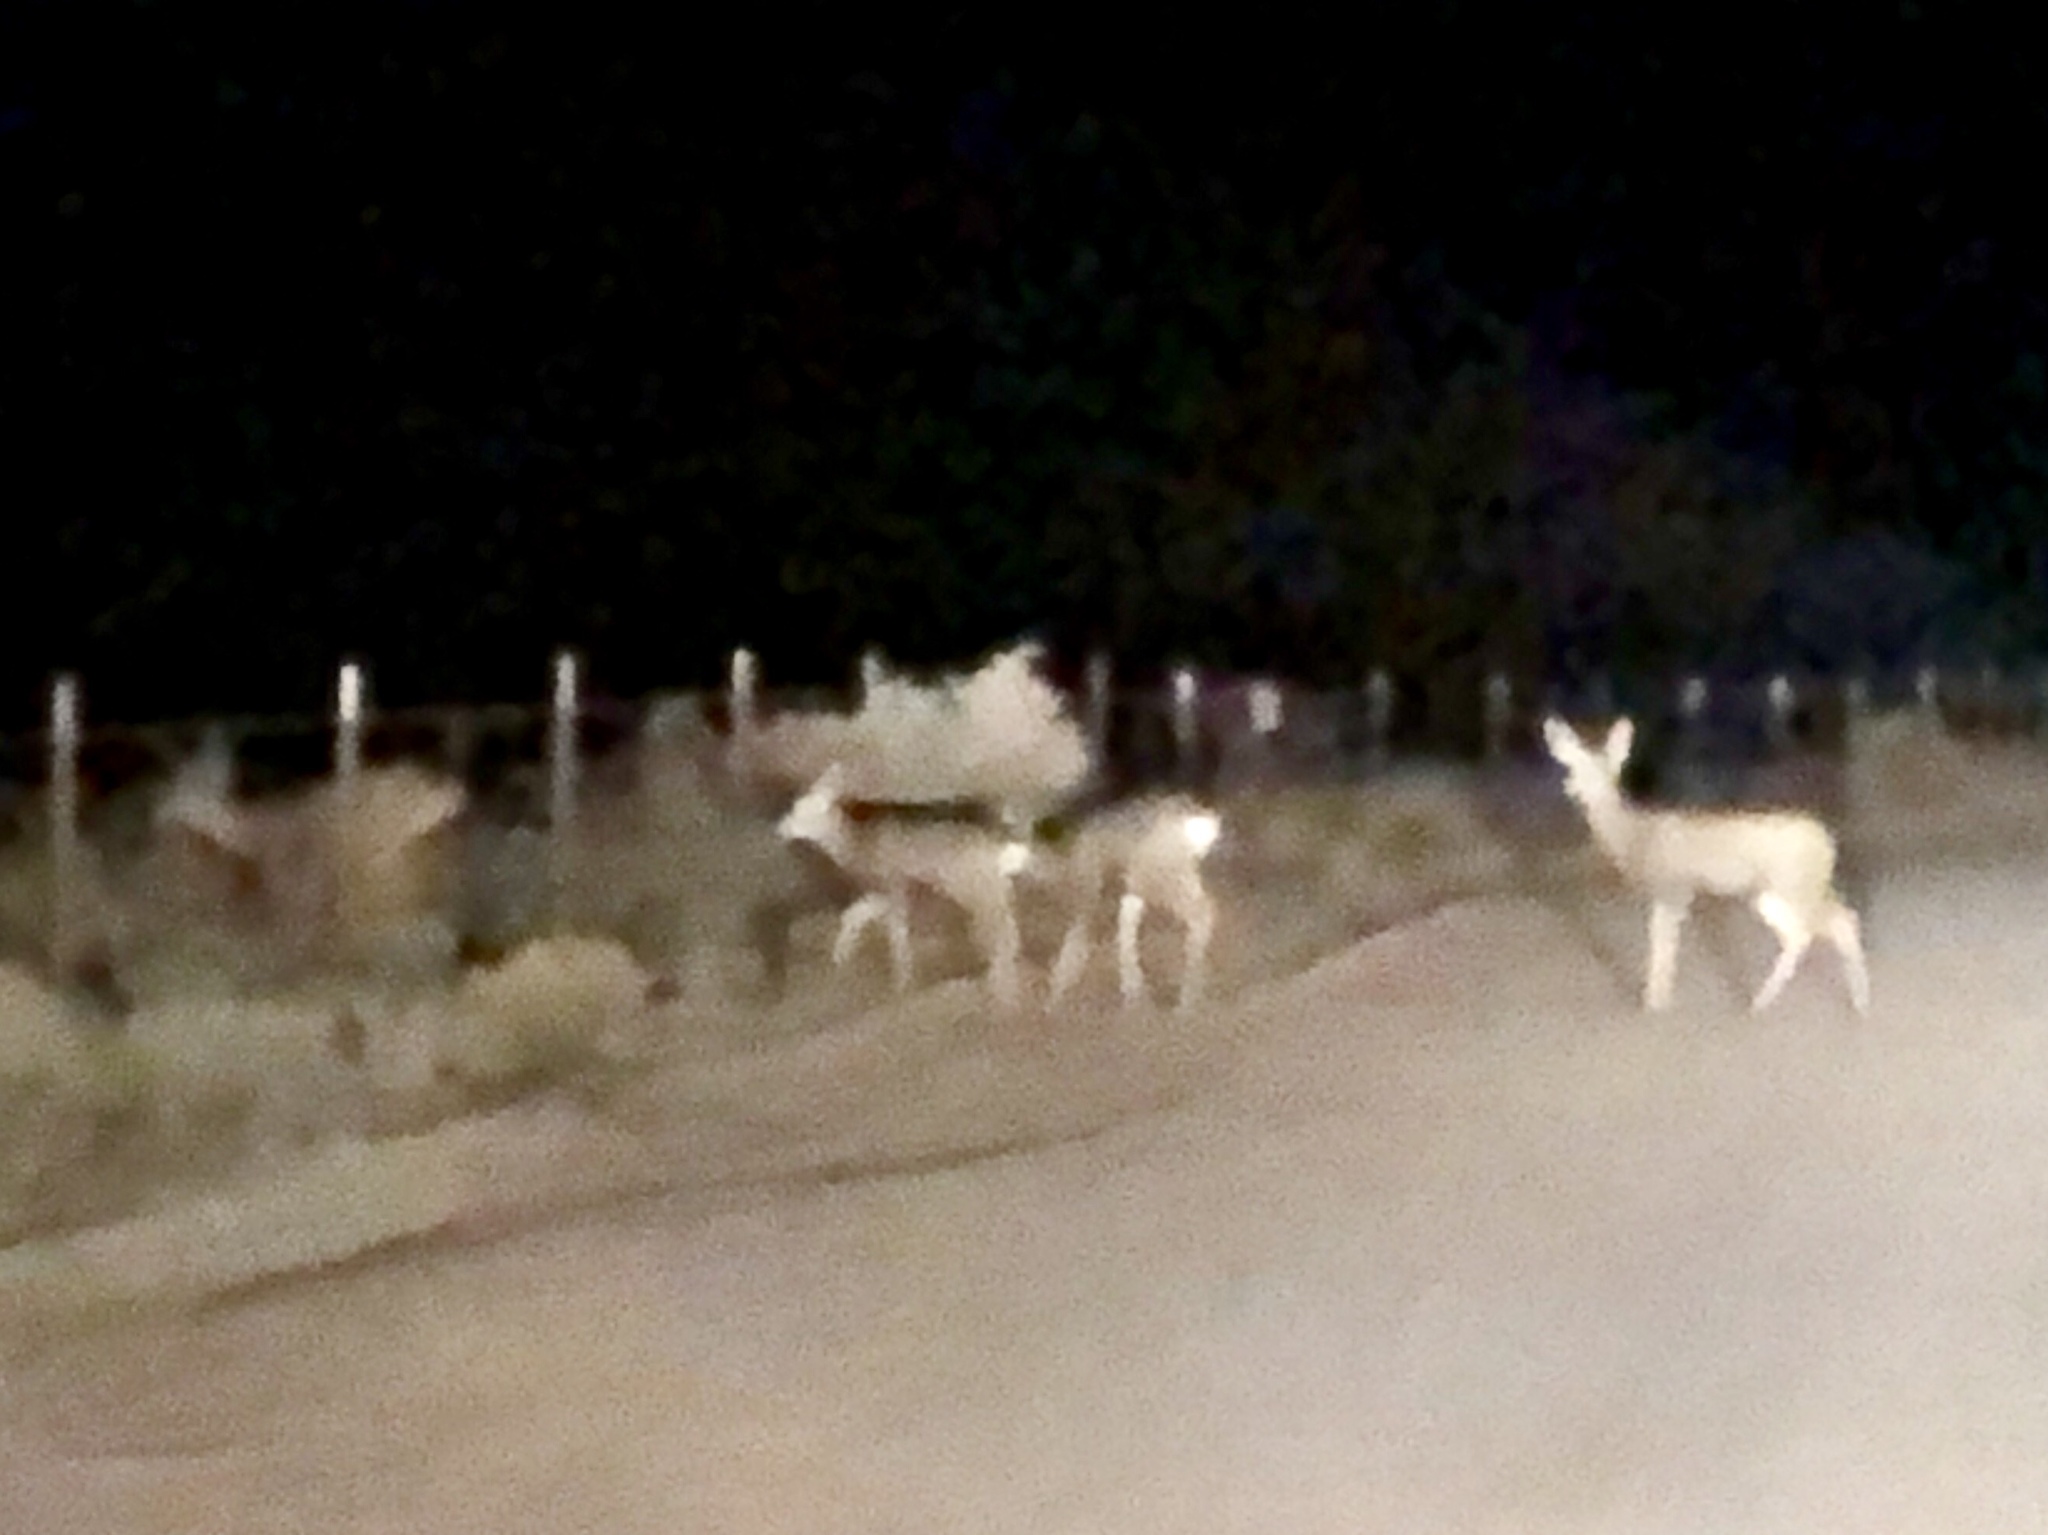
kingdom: Animalia
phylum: Chordata
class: Mammalia
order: Artiodactyla
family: Cervidae
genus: Odocoileus
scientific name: Odocoileus hemionus
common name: Mule deer
